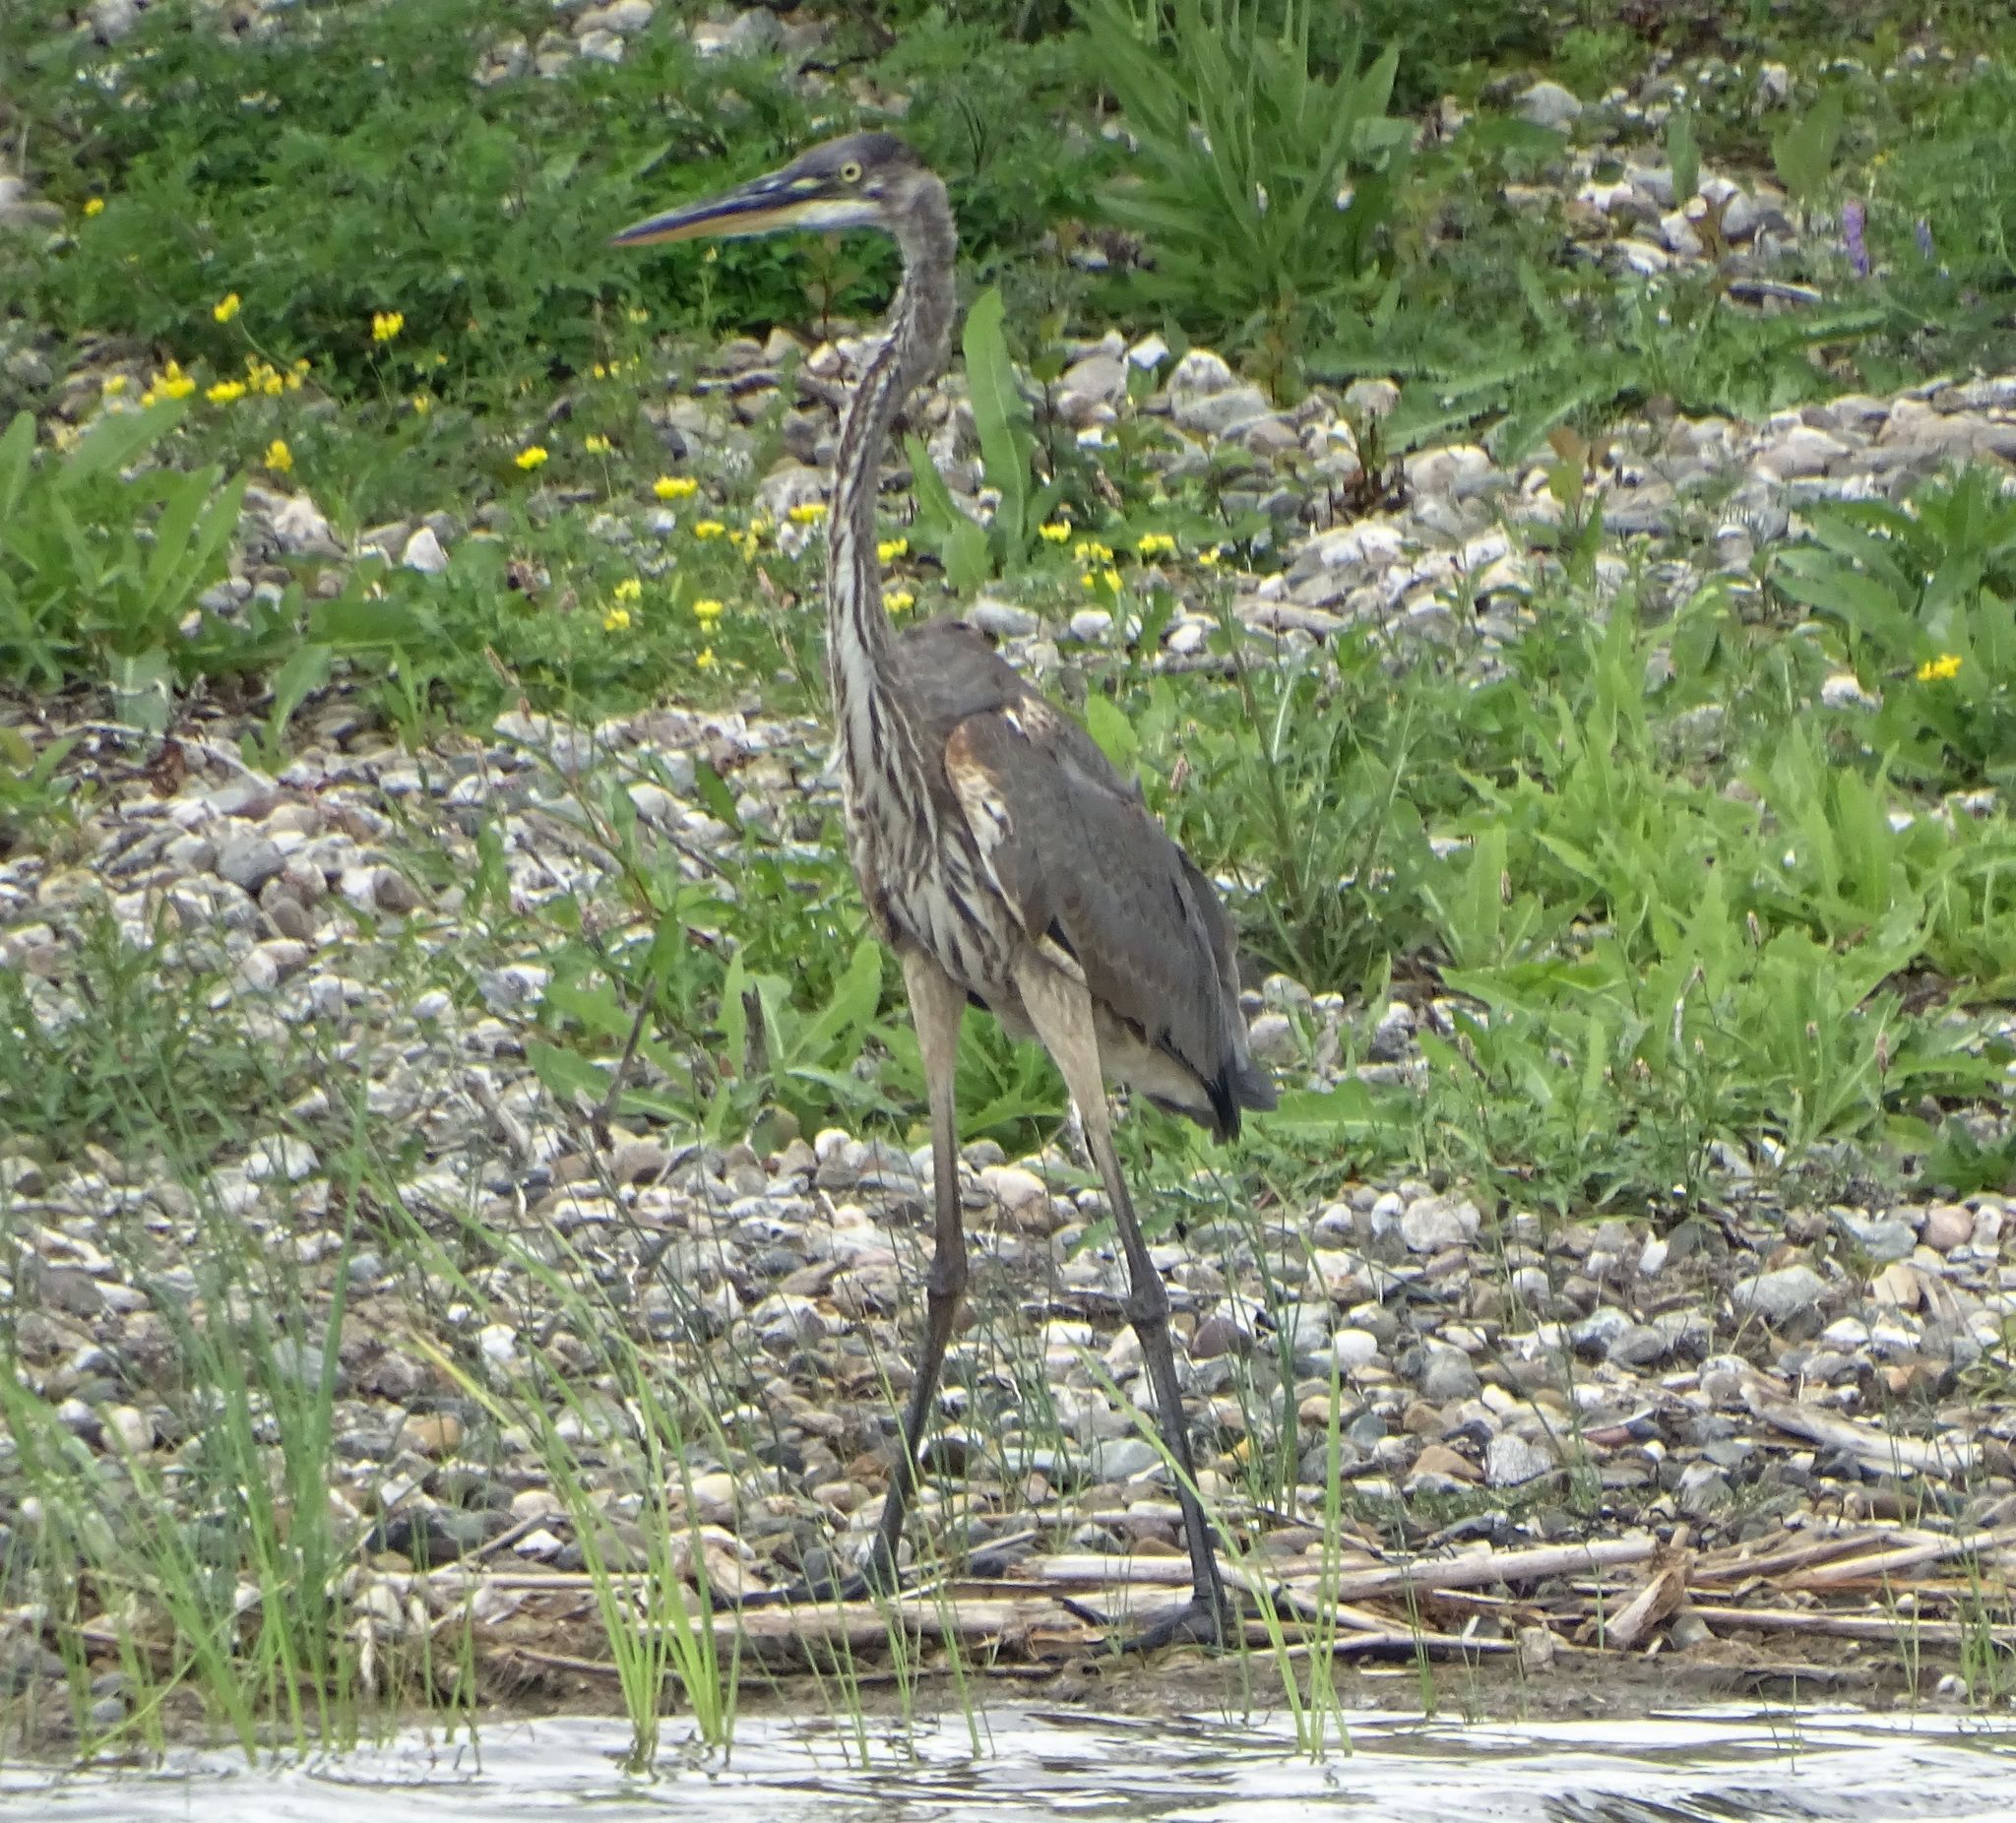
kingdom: Animalia
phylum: Chordata
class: Aves
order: Pelecaniformes
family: Ardeidae
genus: Ardea
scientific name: Ardea herodias
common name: Great blue heron
